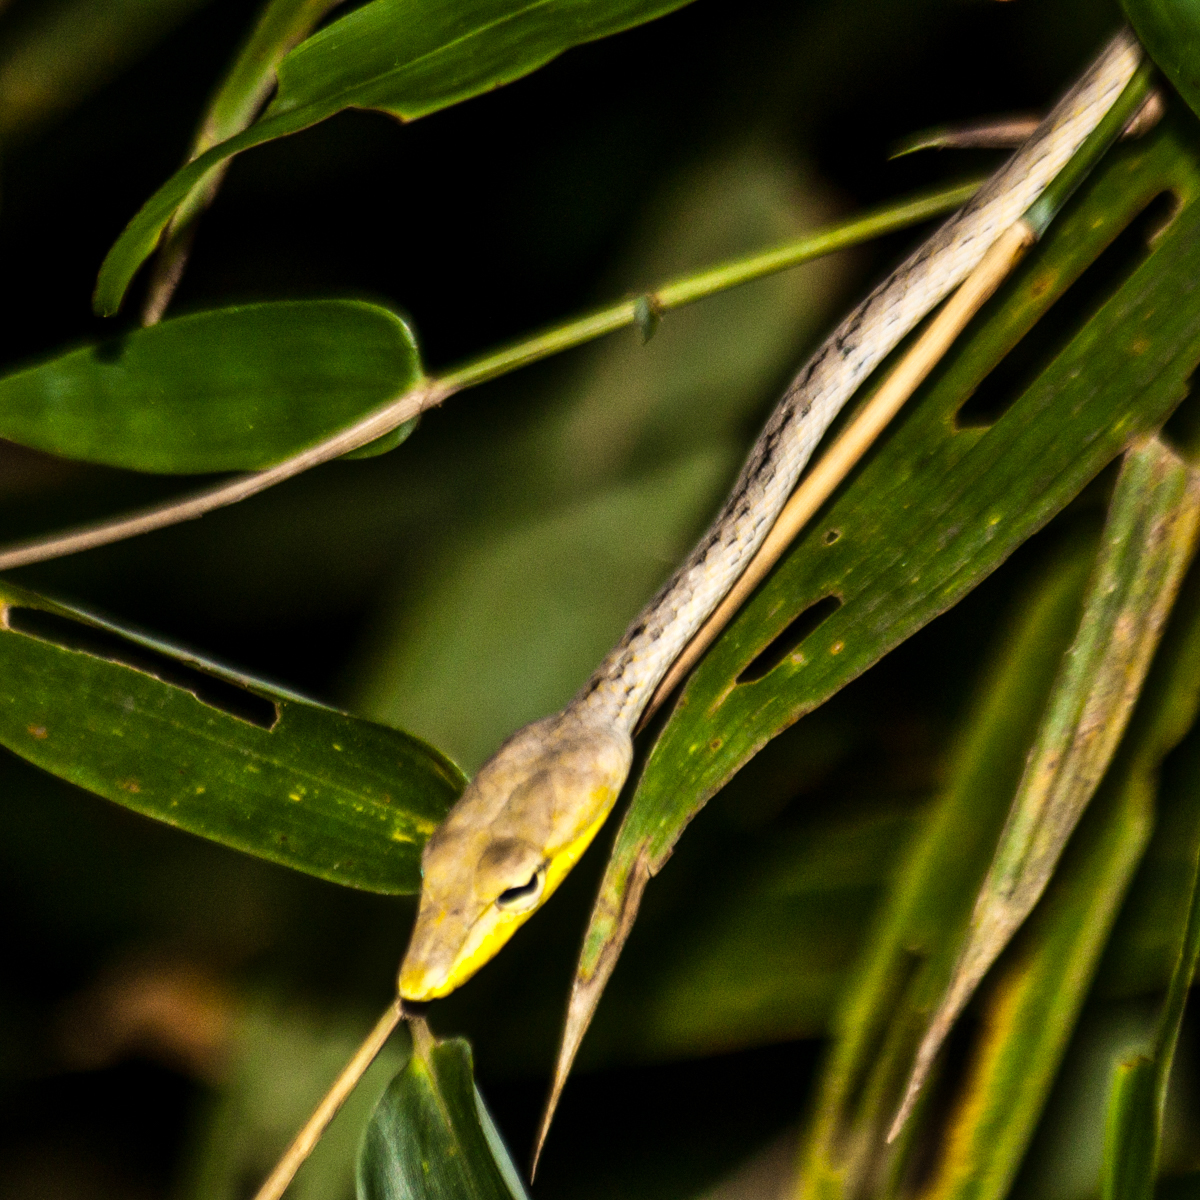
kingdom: Animalia
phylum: Chordata
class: Squamata
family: Colubridae
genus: Ahaetulla
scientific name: Ahaetulla prasina
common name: Oriental whip snake
